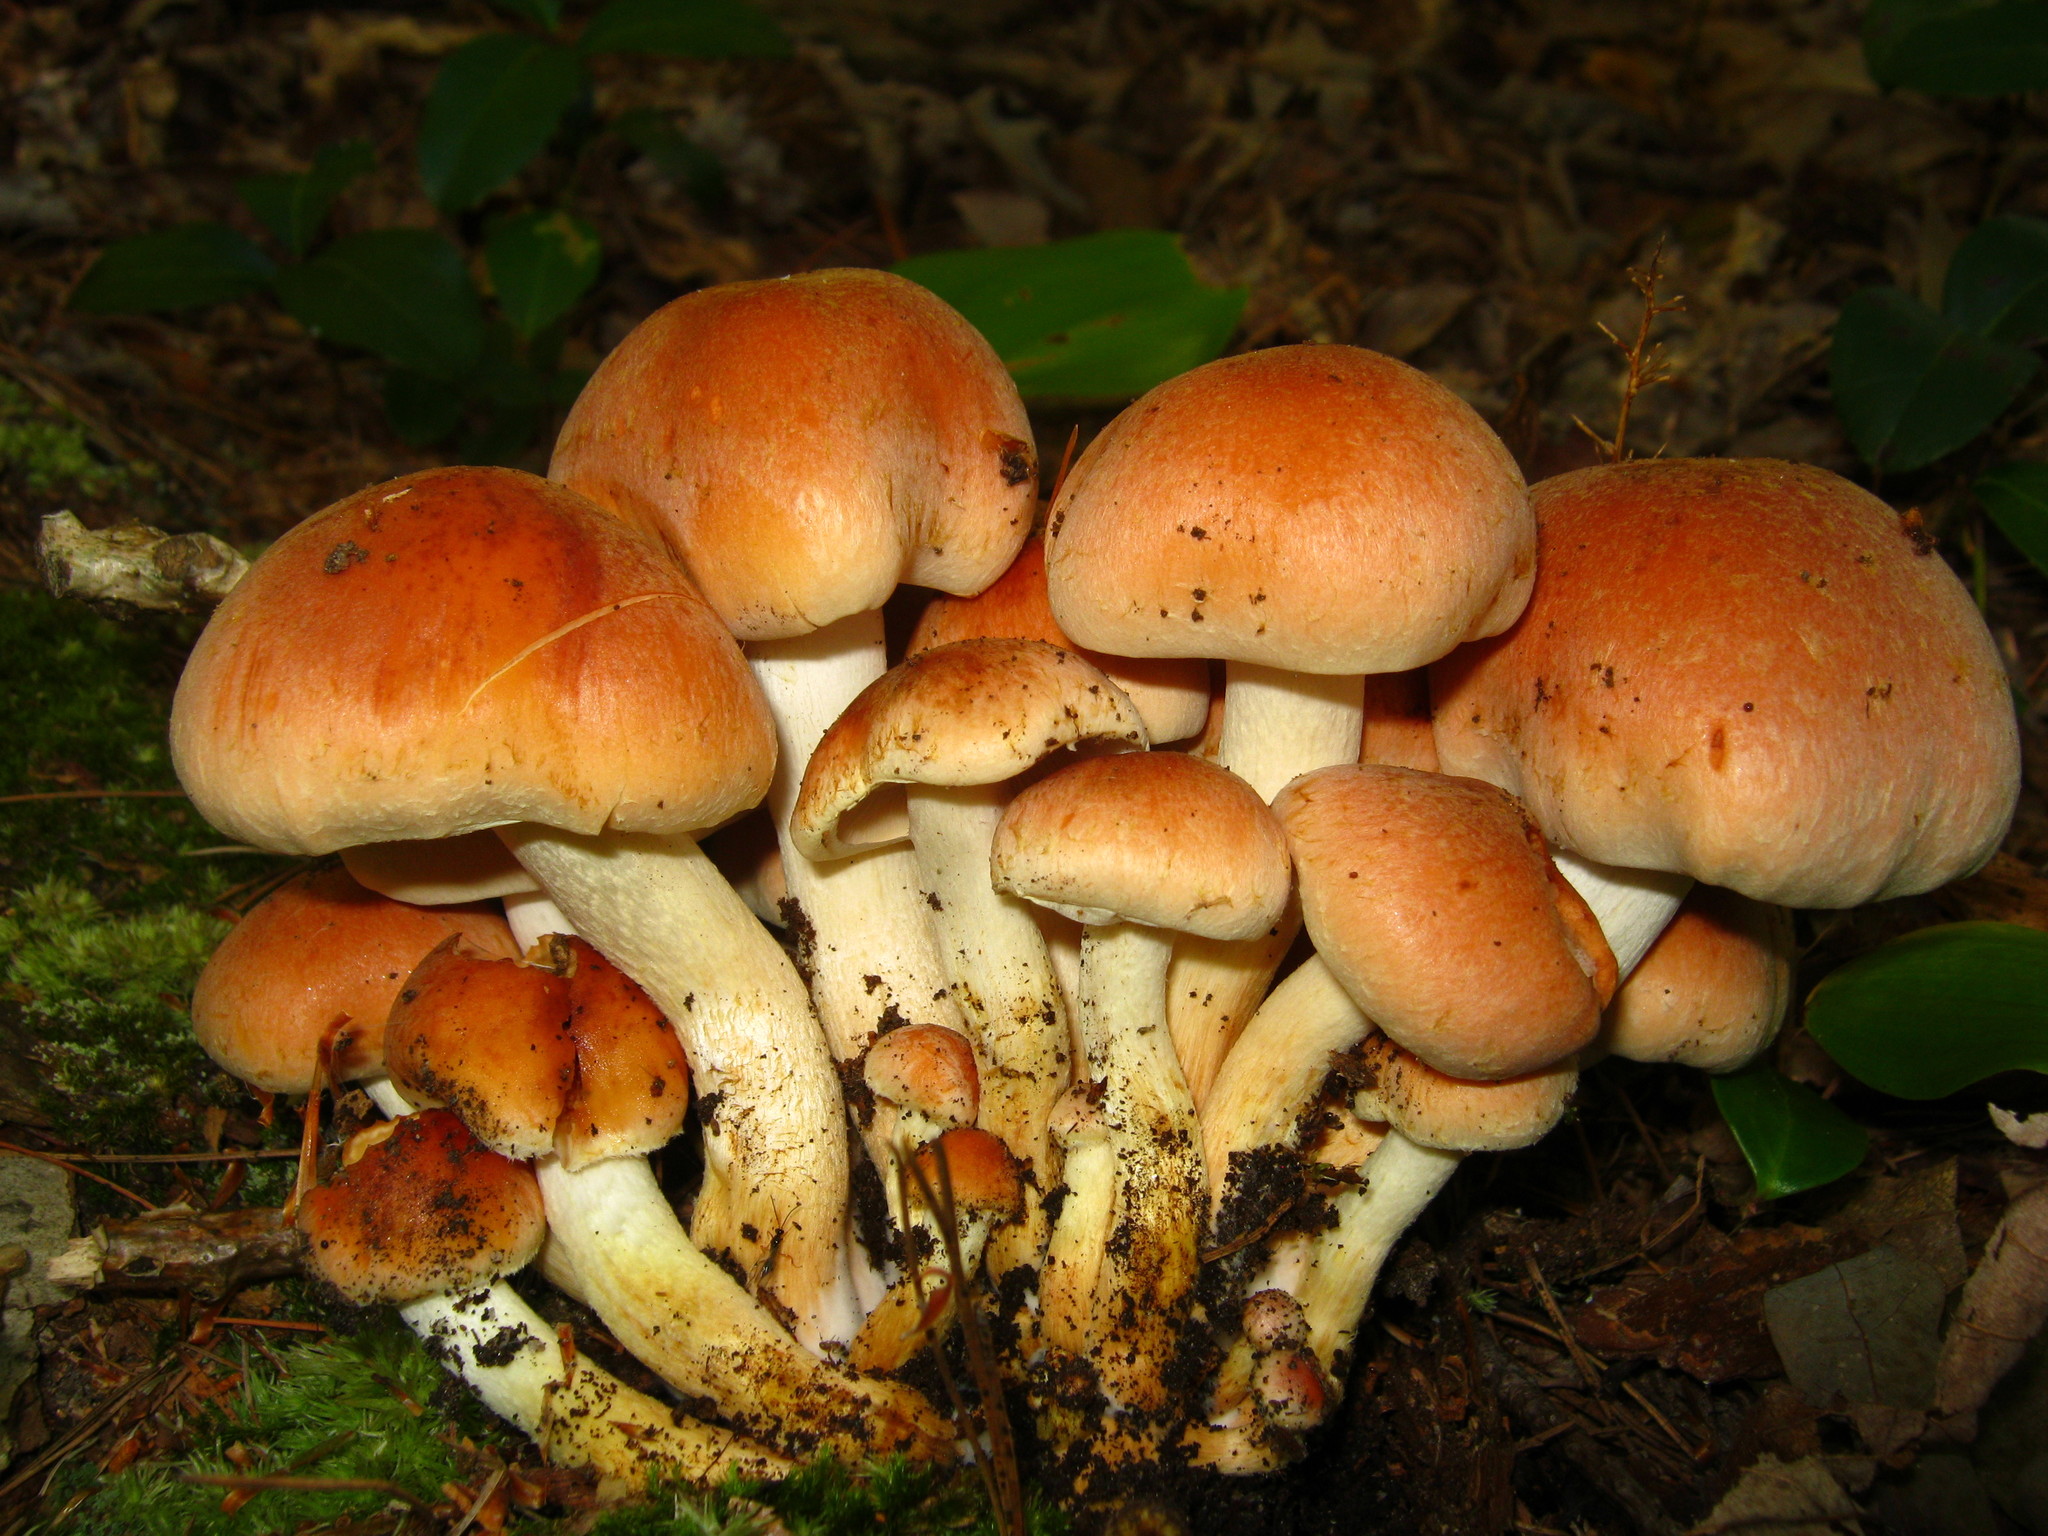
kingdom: Fungi
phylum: Basidiomycota
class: Agaricomycetes
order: Agaricales
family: Strophariaceae
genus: Hypholoma
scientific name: Hypholoma lateritium
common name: Brick caps
